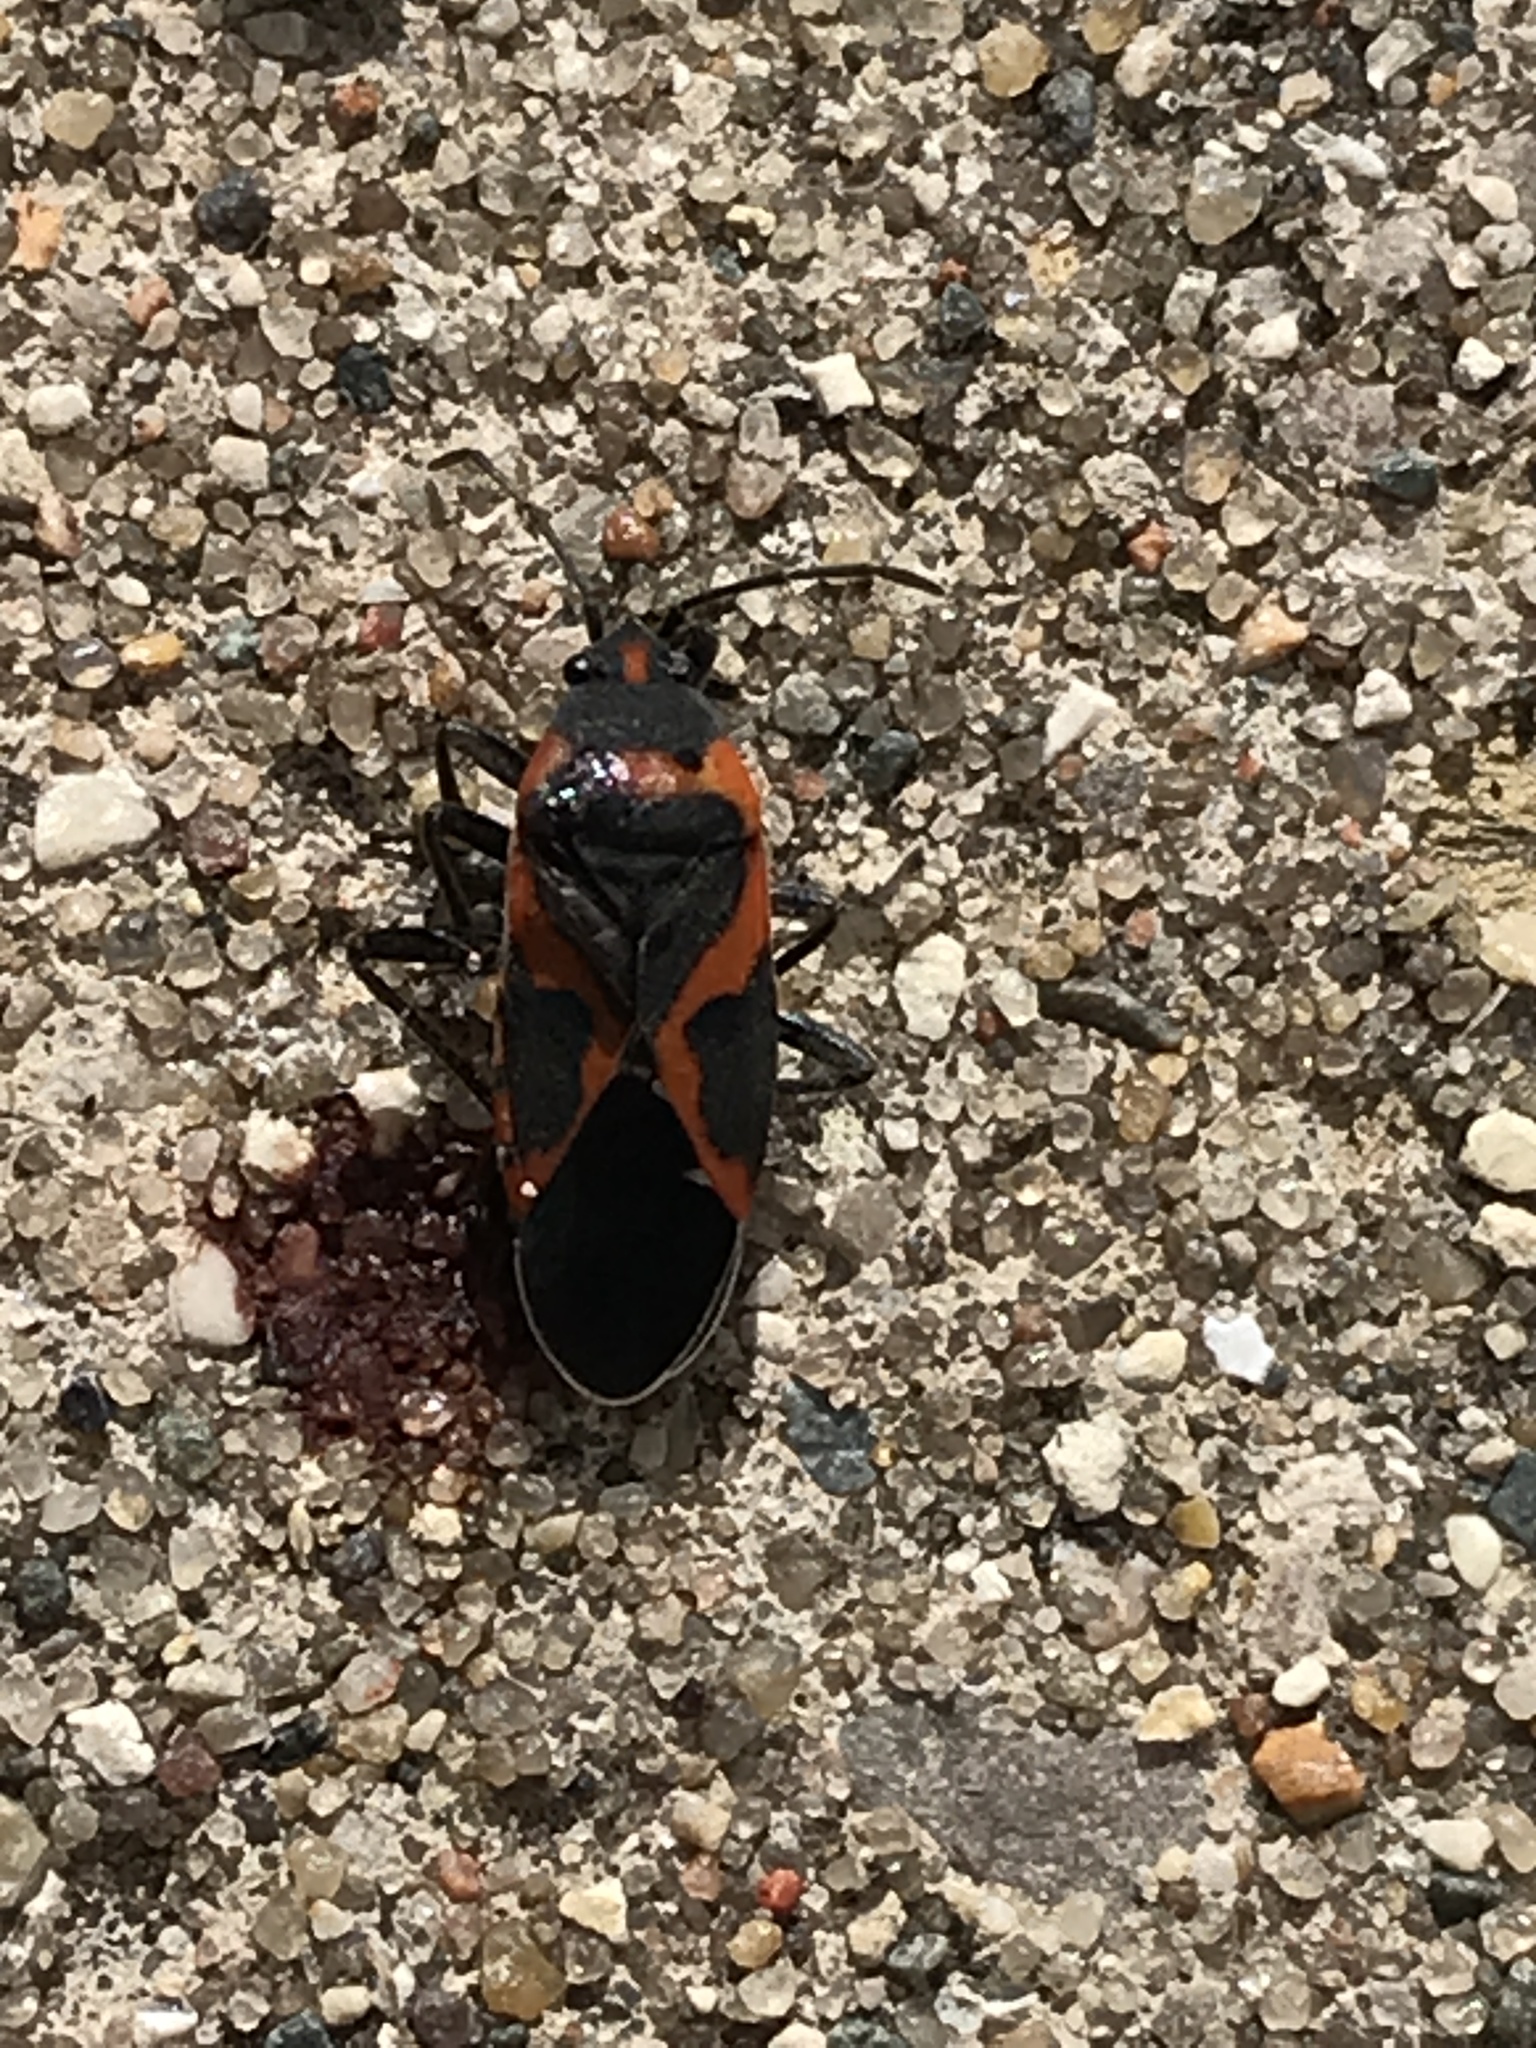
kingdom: Animalia
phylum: Arthropoda
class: Insecta
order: Hemiptera
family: Lygaeidae
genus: Lygaeus
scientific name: Lygaeus kalmii
